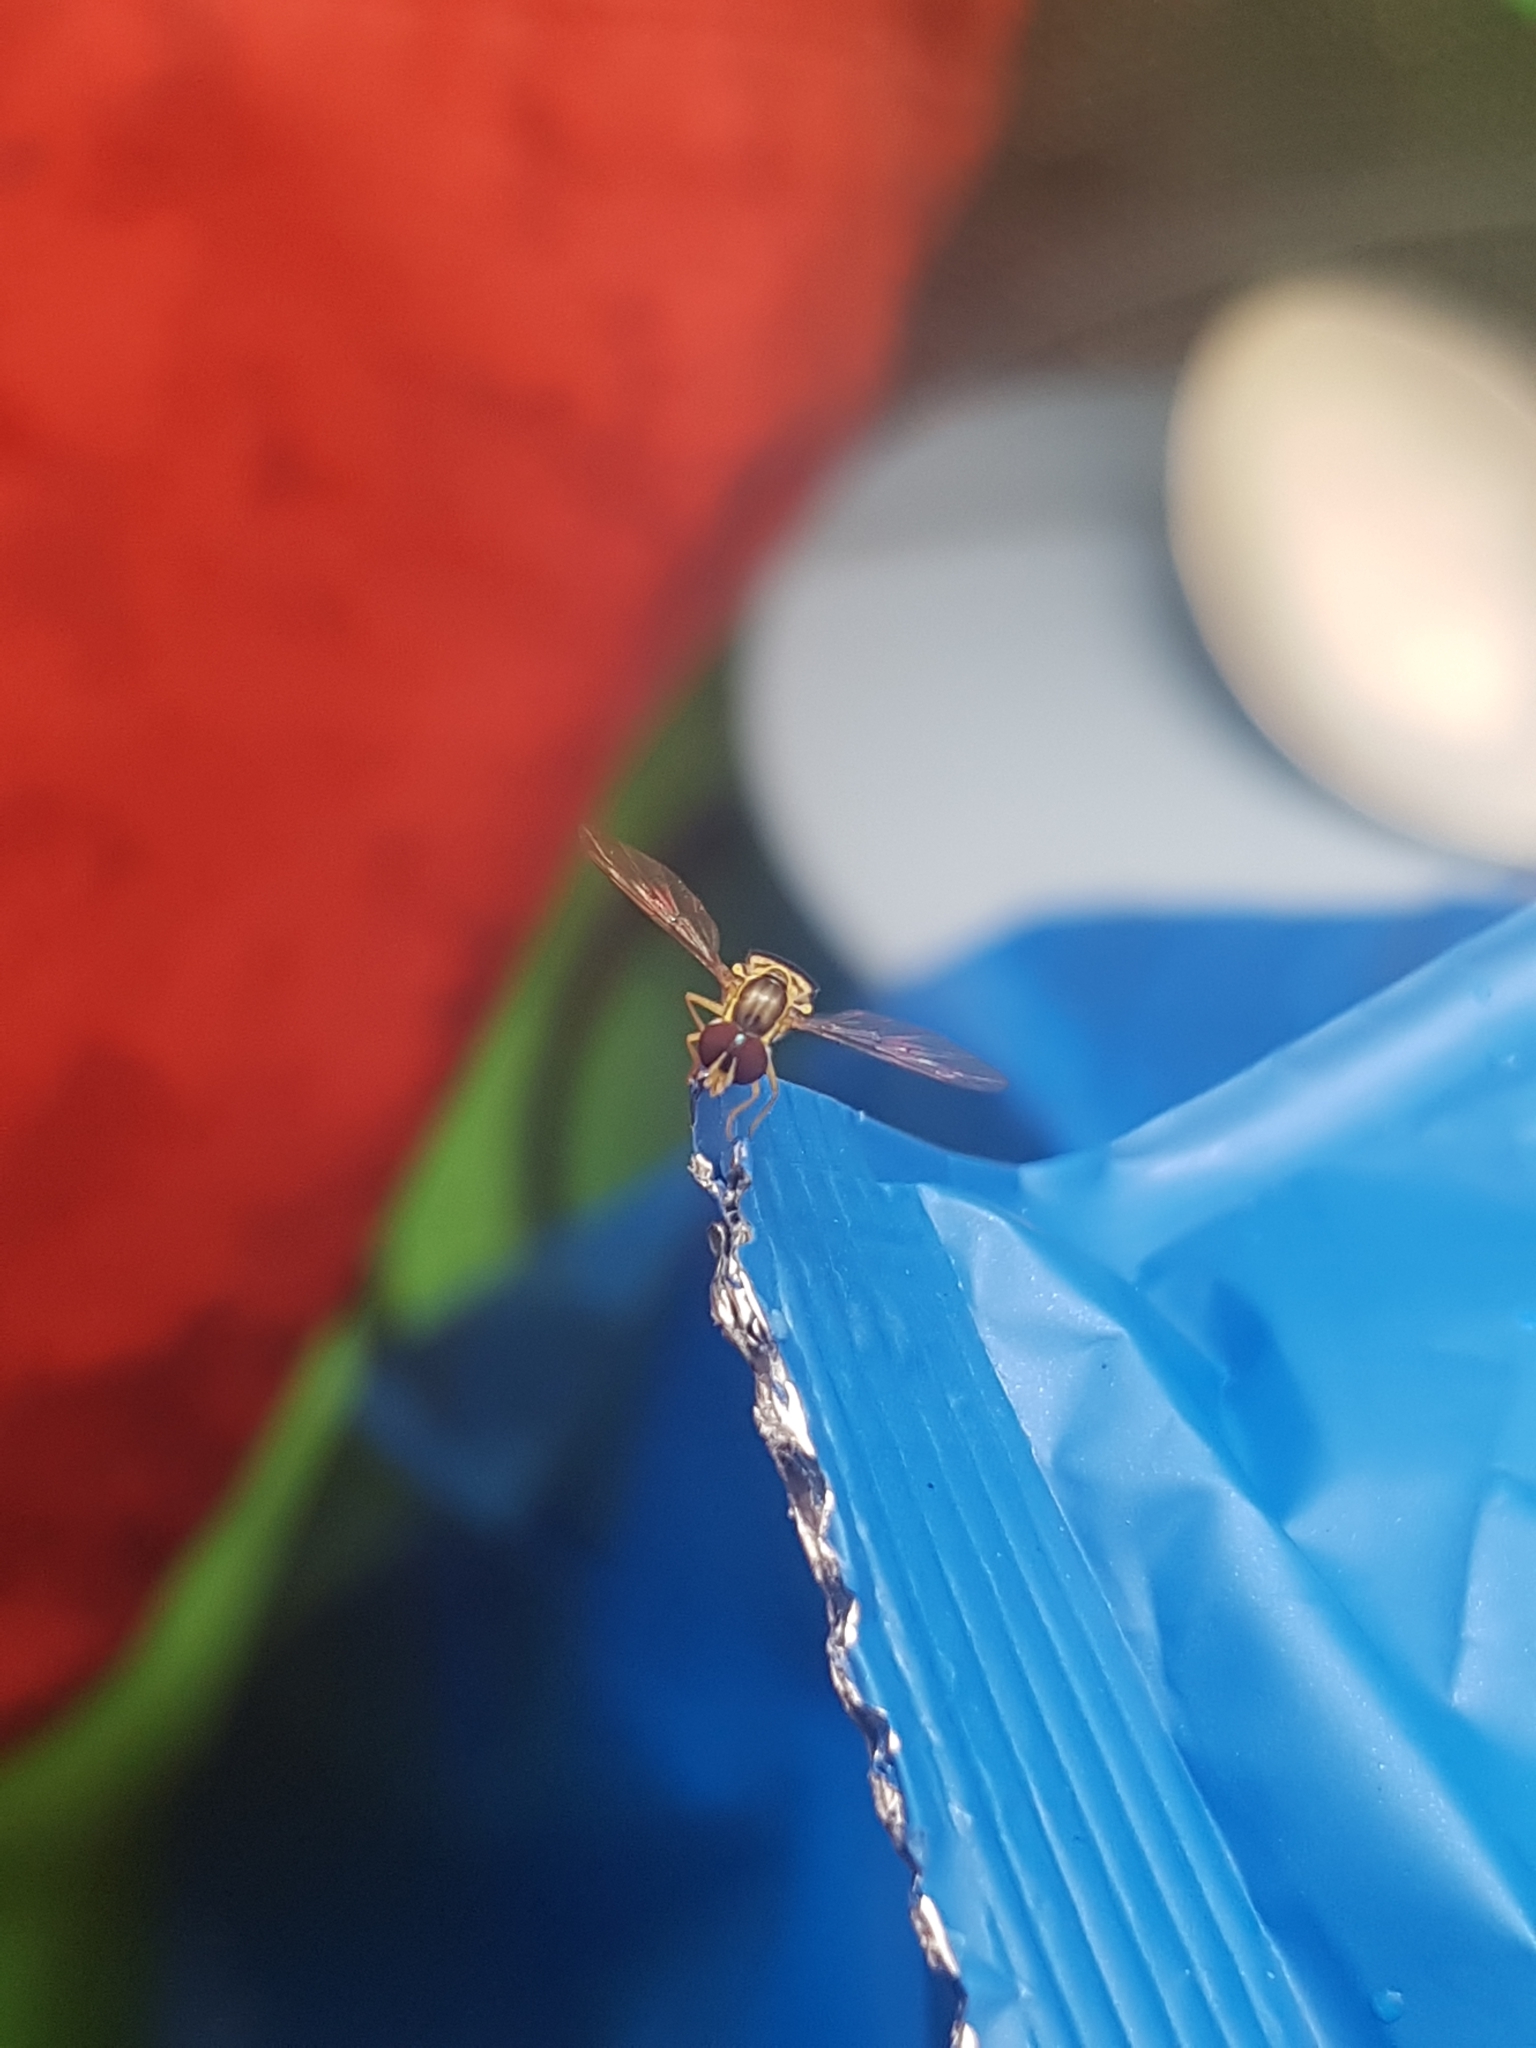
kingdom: Animalia
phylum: Arthropoda
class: Insecta
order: Diptera
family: Syrphidae
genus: Toxomerus
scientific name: Toxomerus geminatus
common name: Eastern calligrapher
